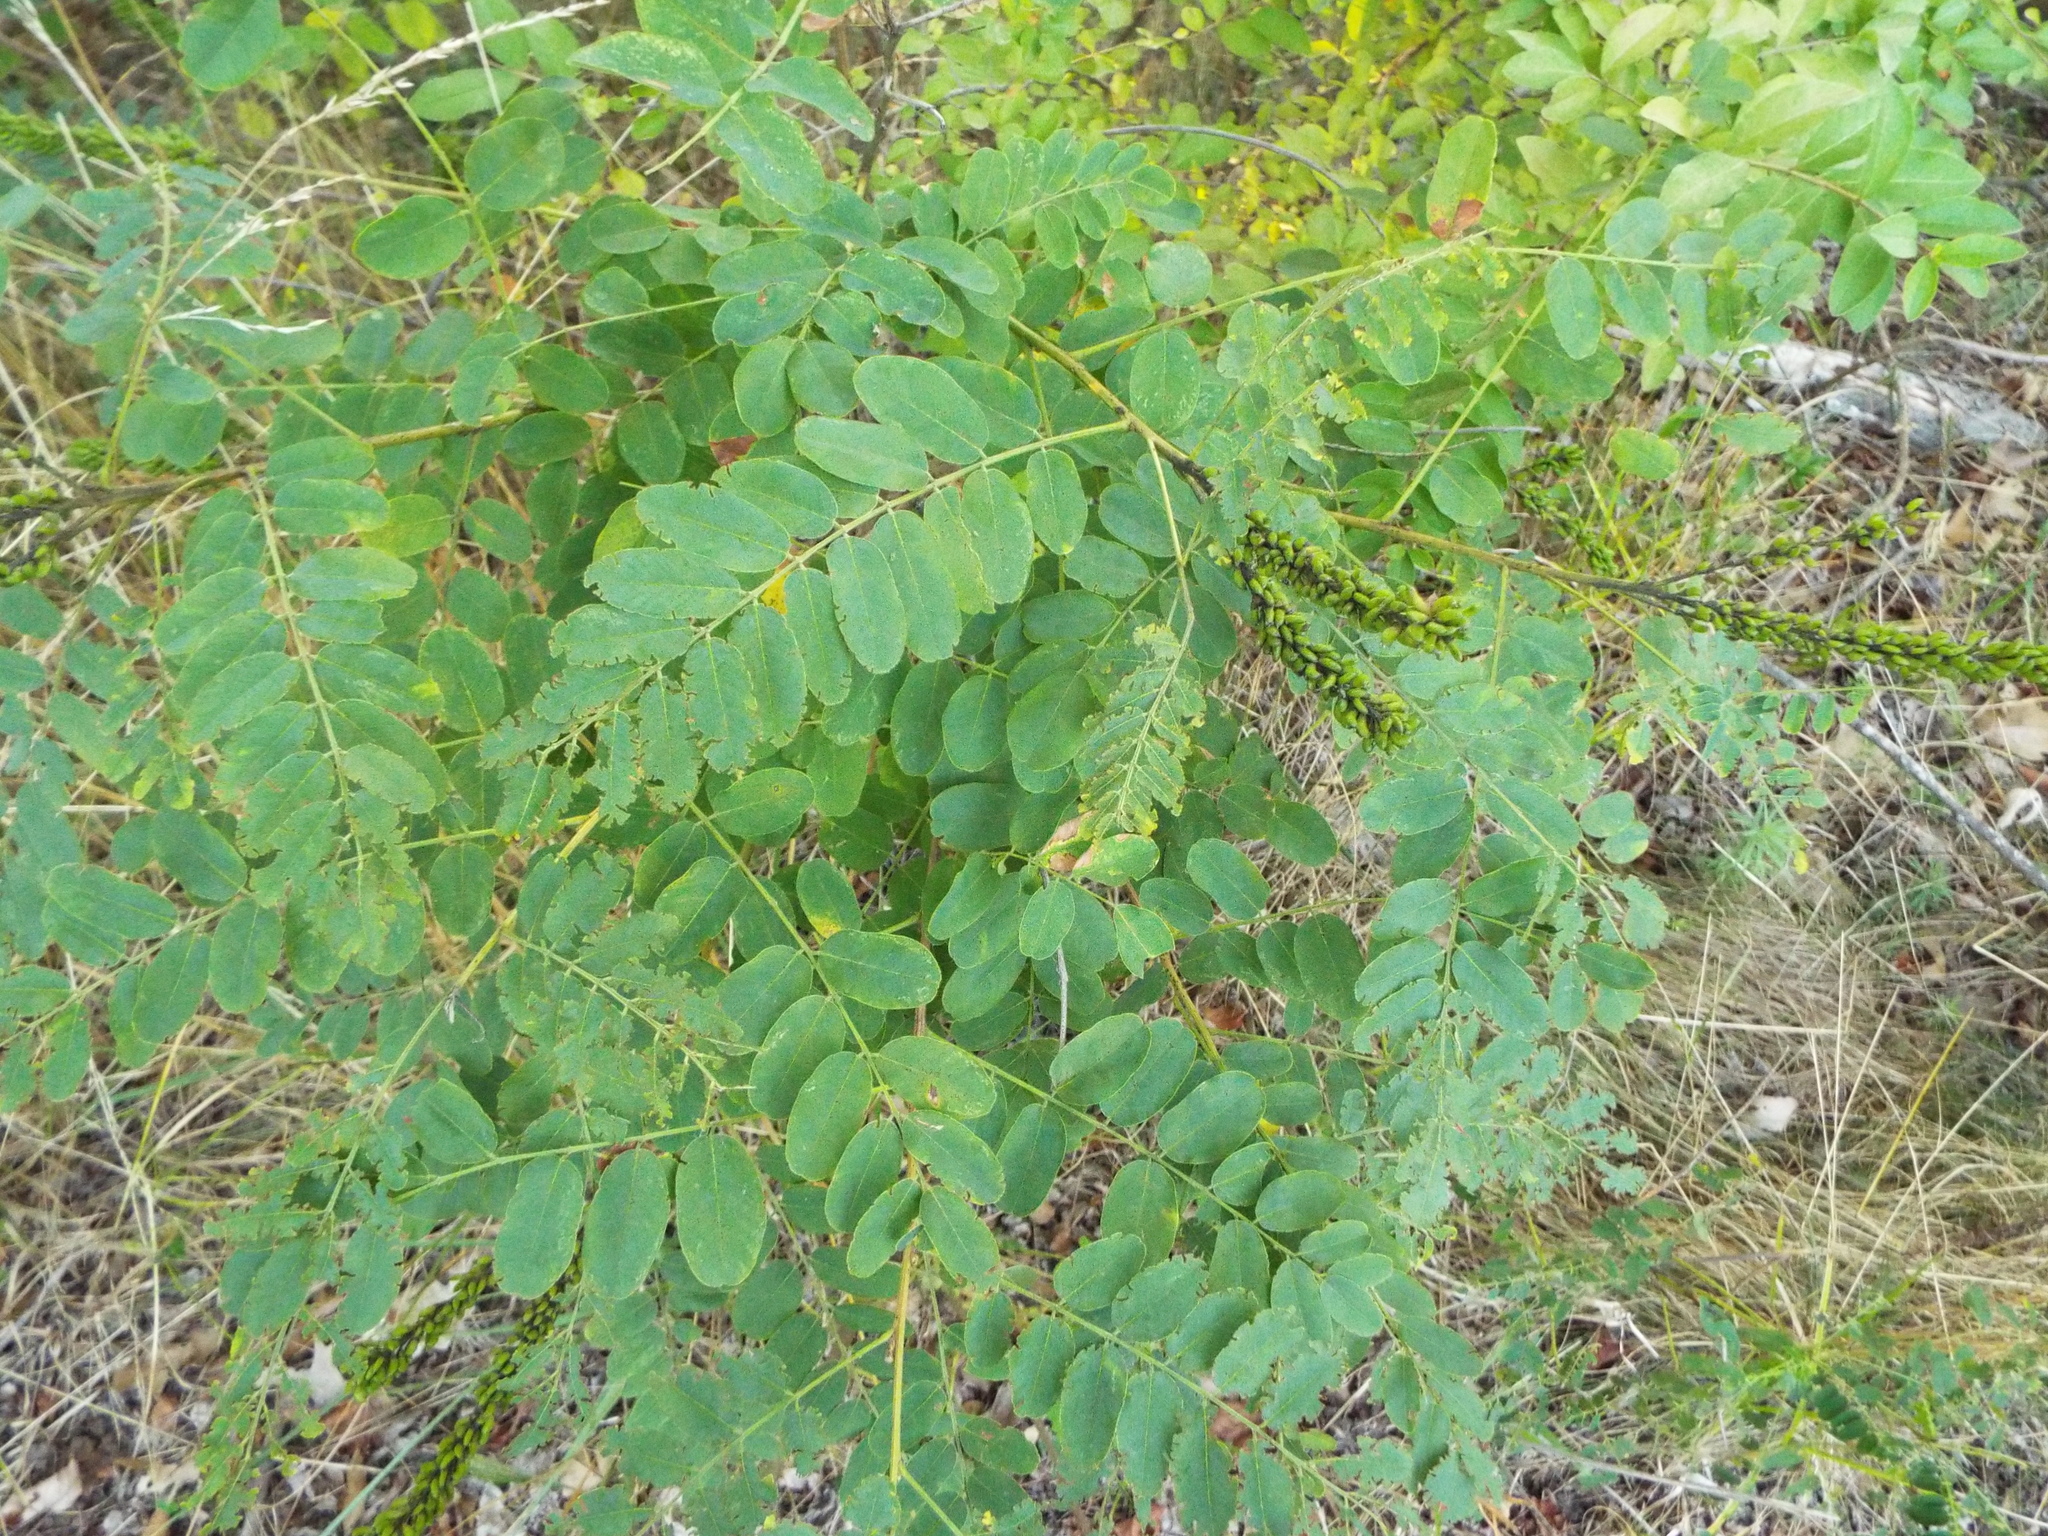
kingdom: Plantae
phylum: Tracheophyta
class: Magnoliopsida
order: Fabales
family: Fabaceae
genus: Amorpha
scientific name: Amorpha fruticosa
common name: False indigo
